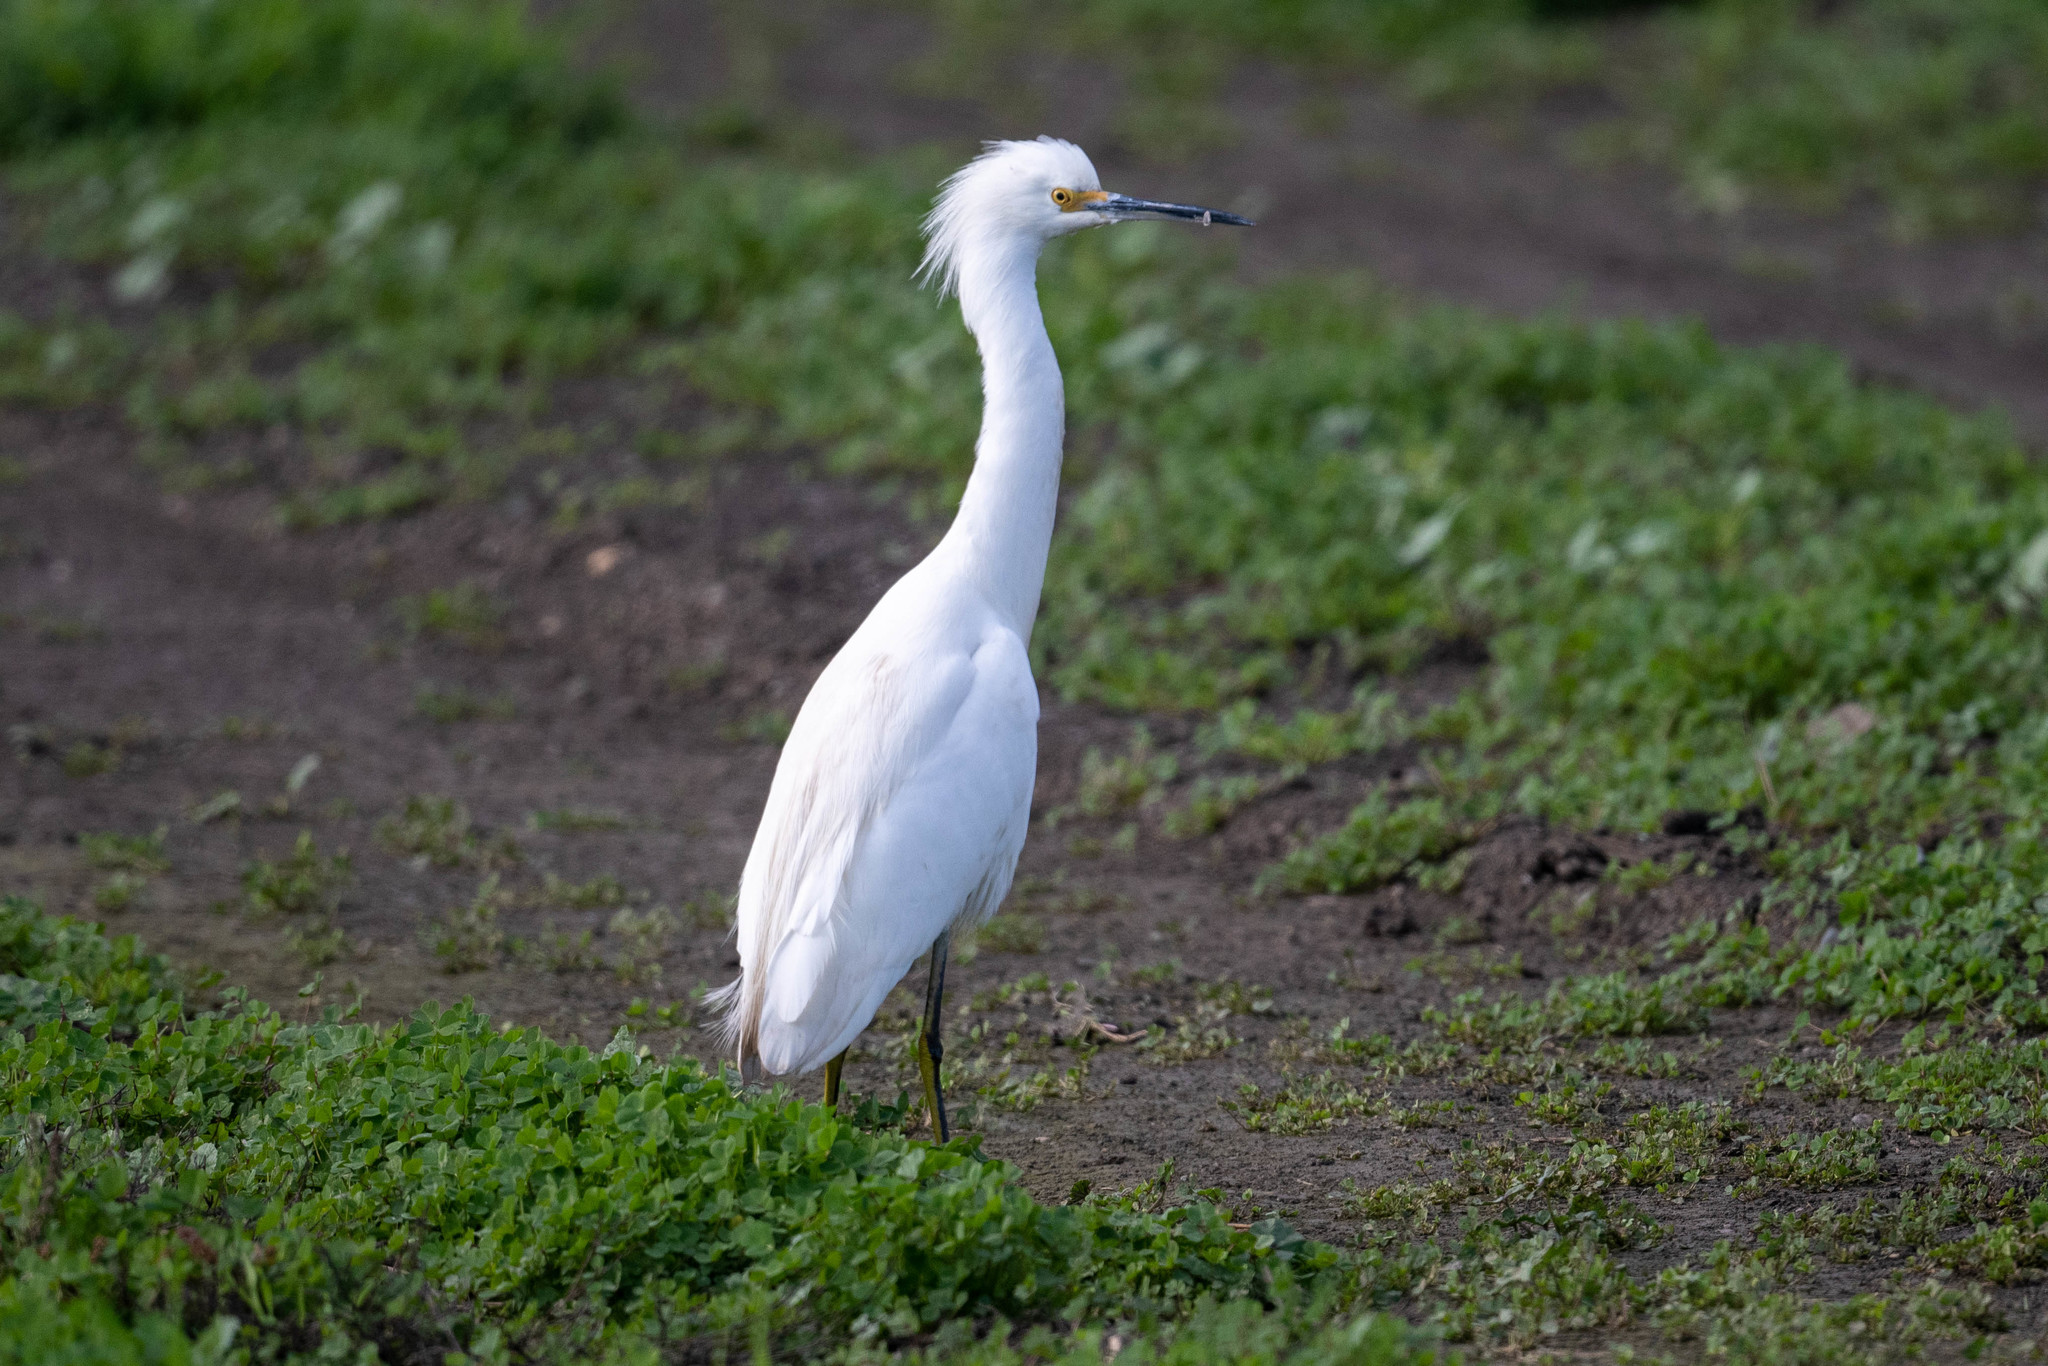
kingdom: Animalia
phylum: Chordata
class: Aves
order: Pelecaniformes
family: Ardeidae
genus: Egretta
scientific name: Egretta thula
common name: Snowy egret
